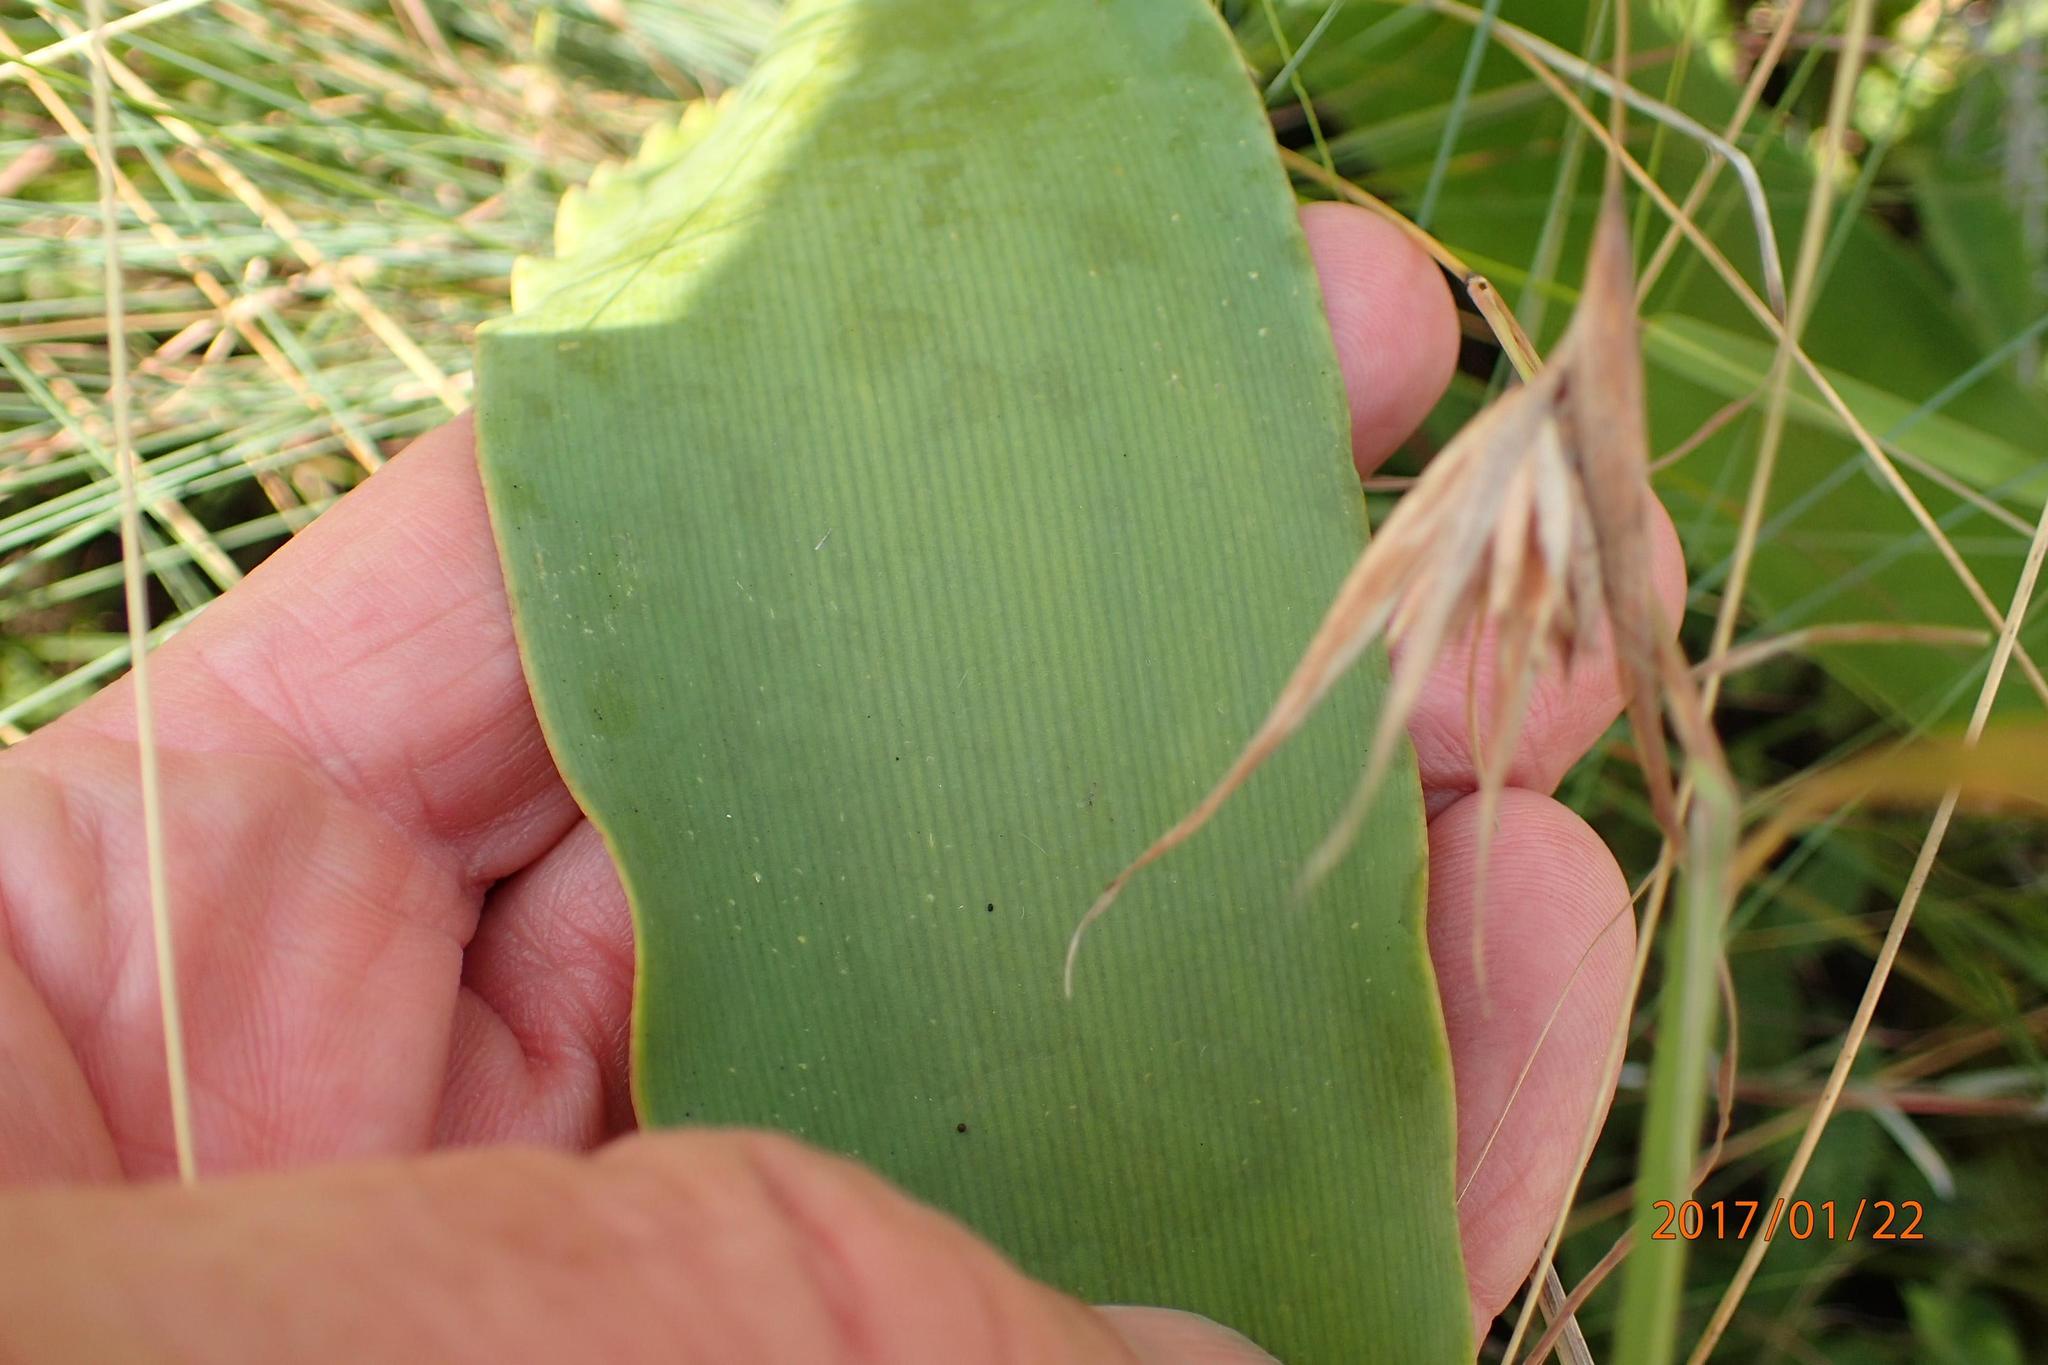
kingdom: Plantae
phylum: Tracheophyta
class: Liliopsida
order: Asparagales
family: Amaryllidaceae
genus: Brunsvigia
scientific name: Brunsvigia undulata
